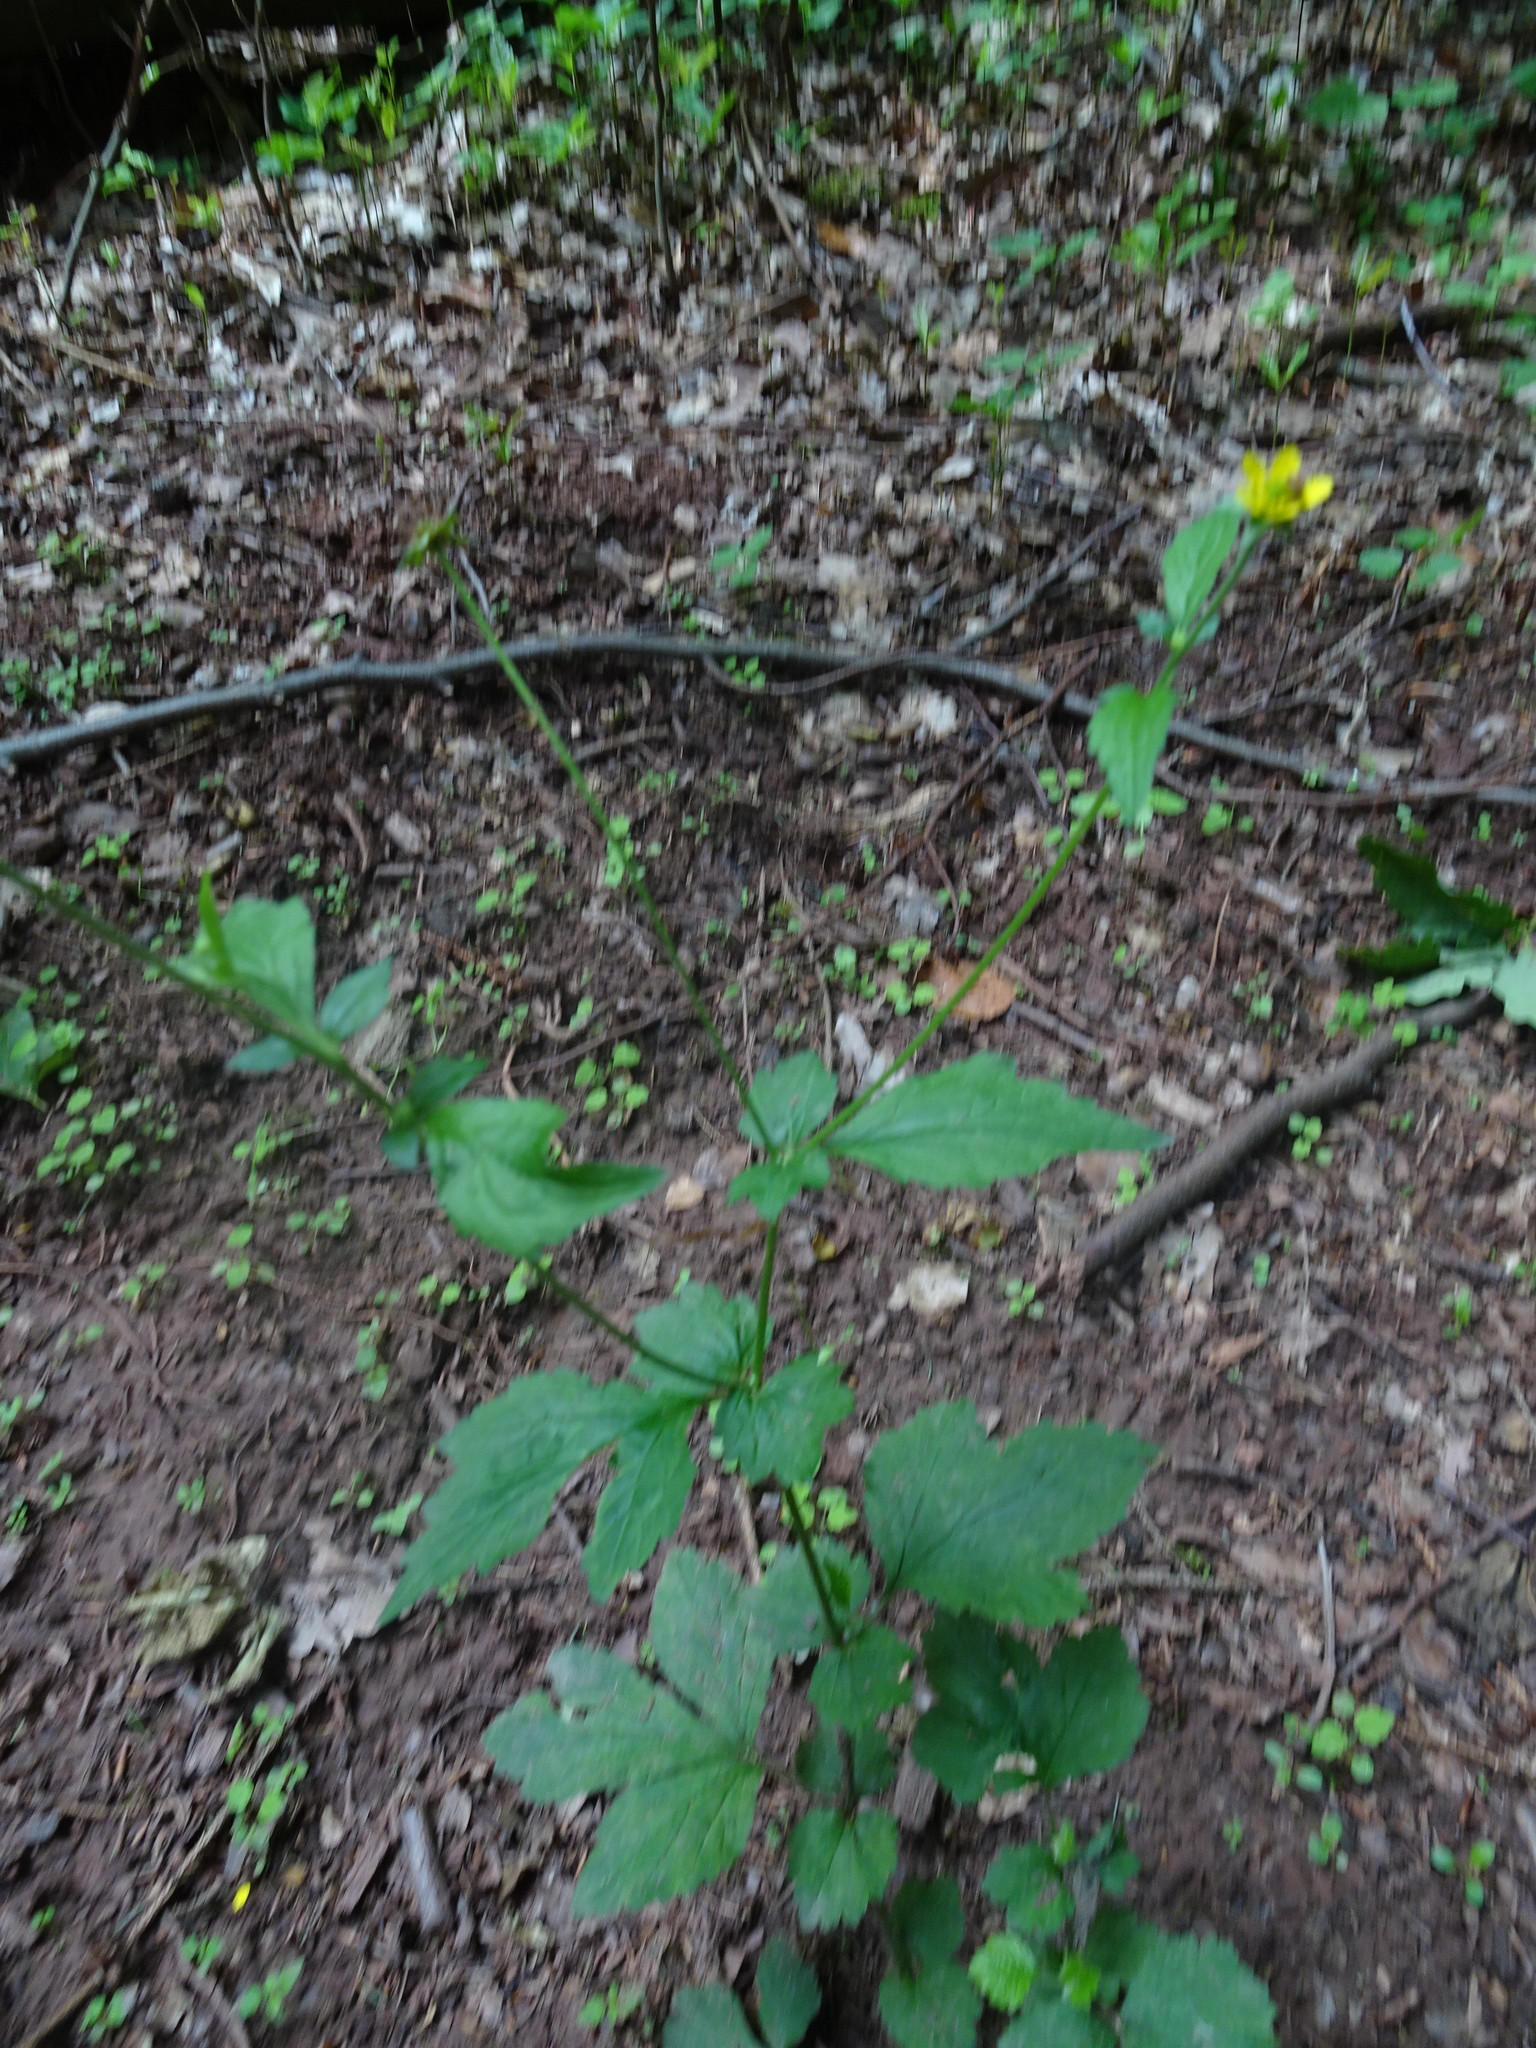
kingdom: Plantae
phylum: Tracheophyta
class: Magnoliopsida
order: Rosales
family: Rosaceae
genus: Geum
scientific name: Geum urbanum
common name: Wood avens
